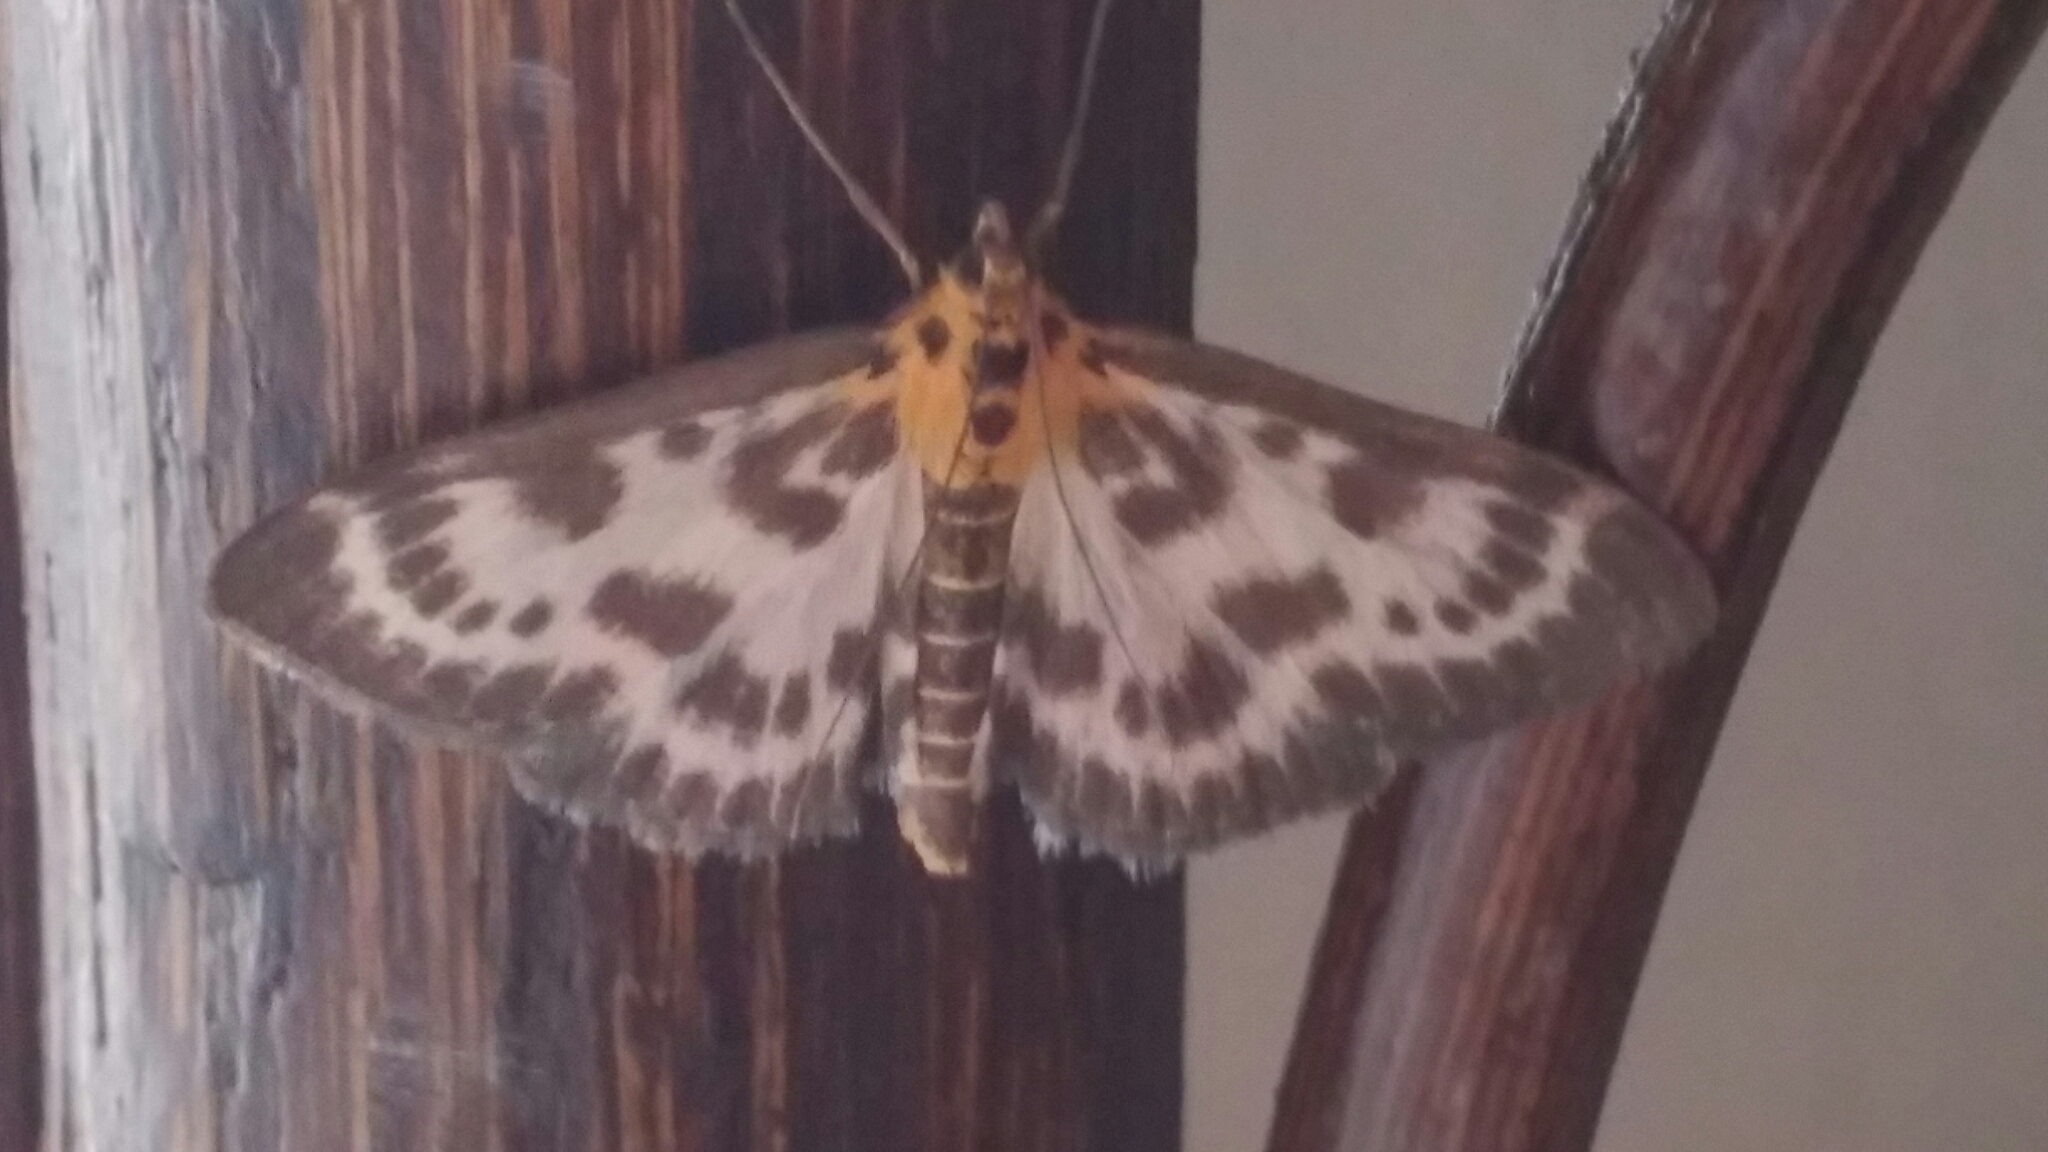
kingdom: Animalia
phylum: Arthropoda
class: Insecta
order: Lepidoptera
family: Crambidae
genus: Anania
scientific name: Anania hortulata
